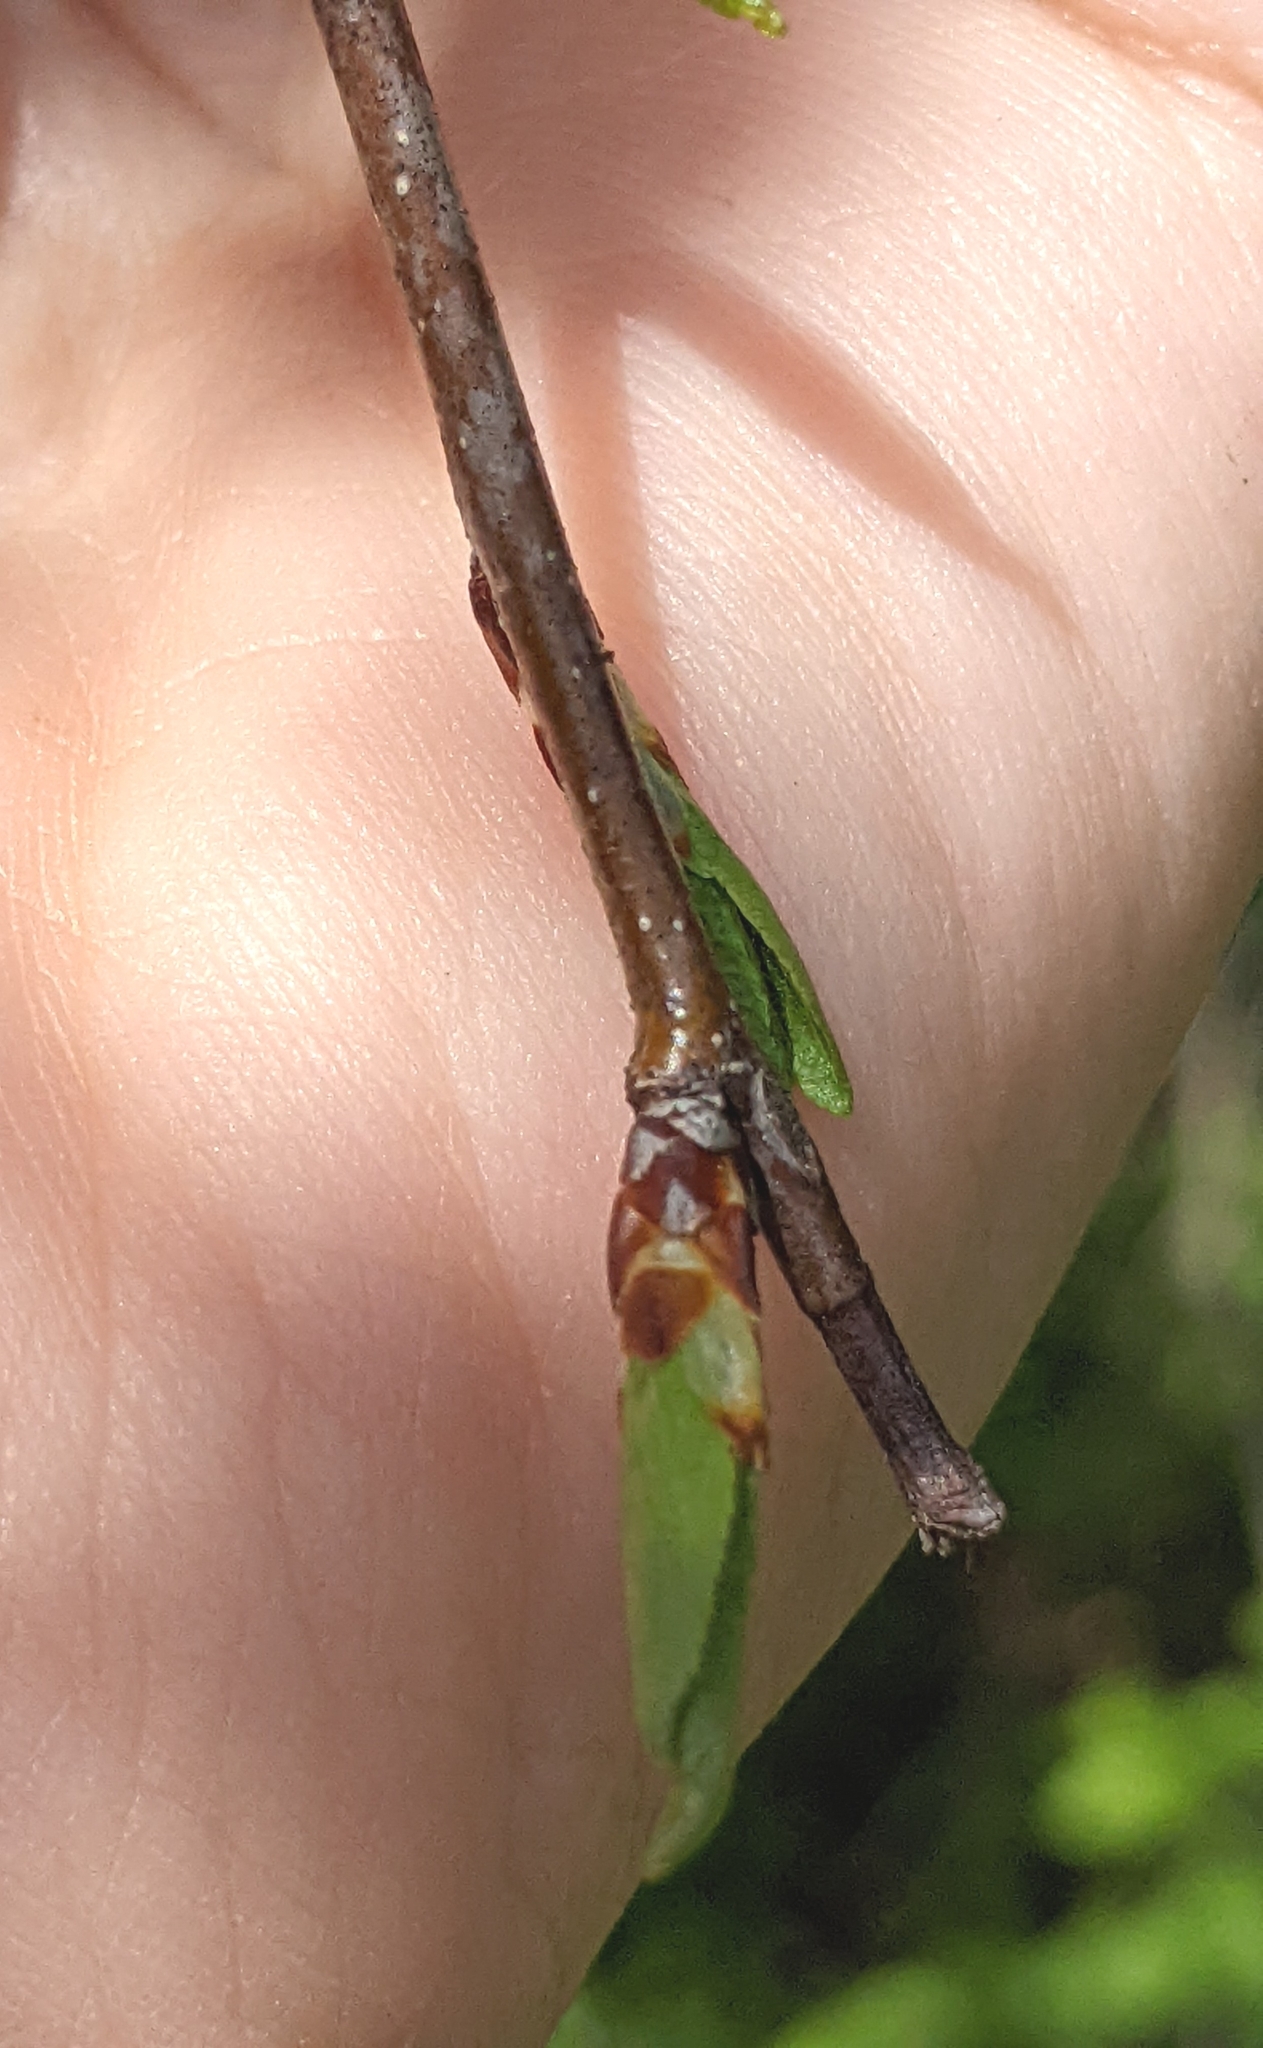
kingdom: Plantae
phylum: Tracheophyta
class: Magnoliopsida
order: Rosales
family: Rosaceae
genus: Prunus
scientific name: Prunus americana
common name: American plum
